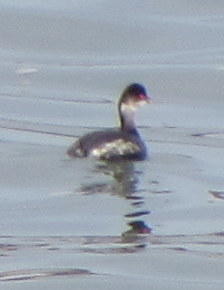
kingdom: Animalia
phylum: Chordata
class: Aves
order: Podicipediformes
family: Podicipedidae
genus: Podiceps
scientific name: Podiceps nigricollis
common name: Black-necked grebe
